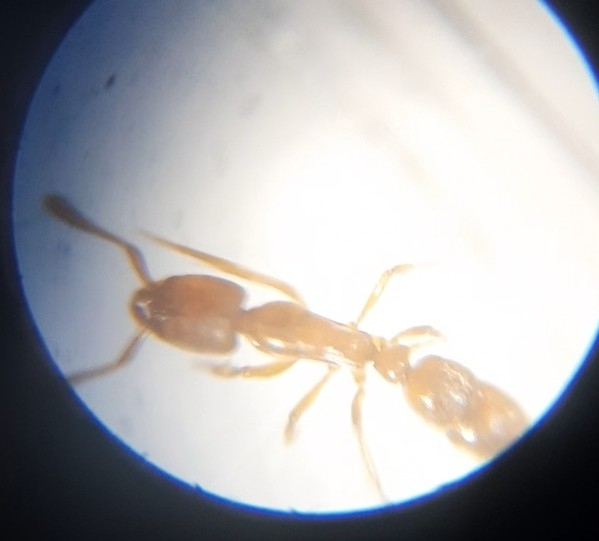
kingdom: Animalia
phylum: Arthropoda
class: Insecta
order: Hymenoptera
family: Formicidae
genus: Ponera
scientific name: Ponera pennsylvanica
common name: Pennsylvania ponera
